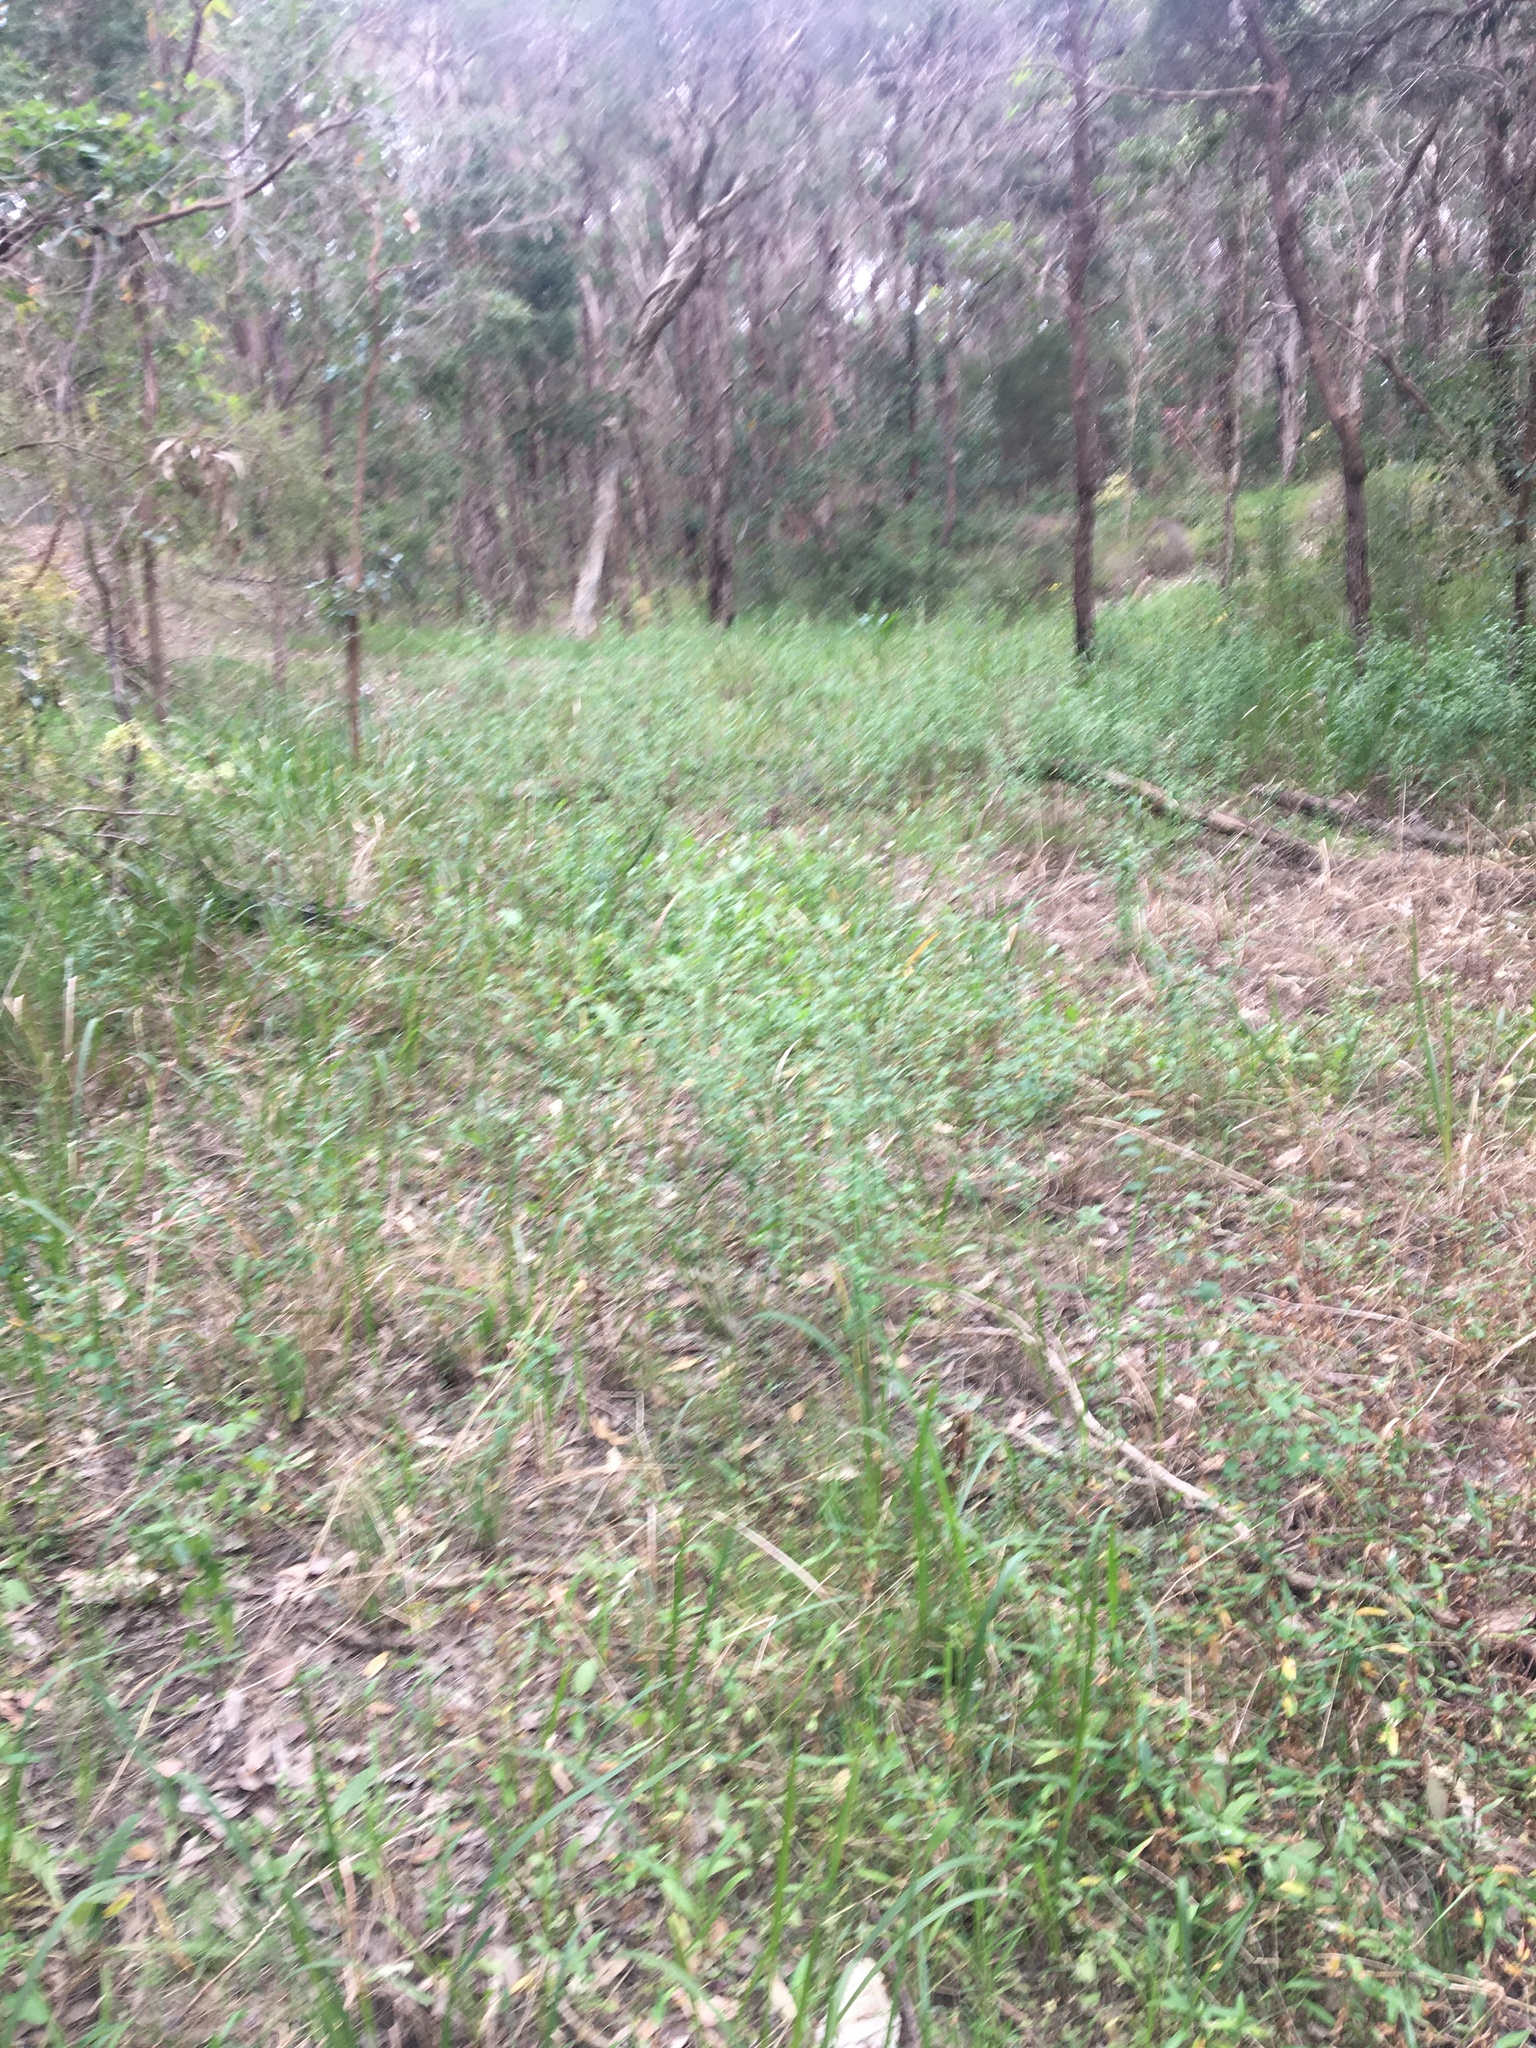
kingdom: Plantae
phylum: Tracheophyta
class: Magnoliopsida
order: Malvales
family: Malvaceae
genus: Sida
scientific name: Sida rhombifolia
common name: Queensland-hemp
